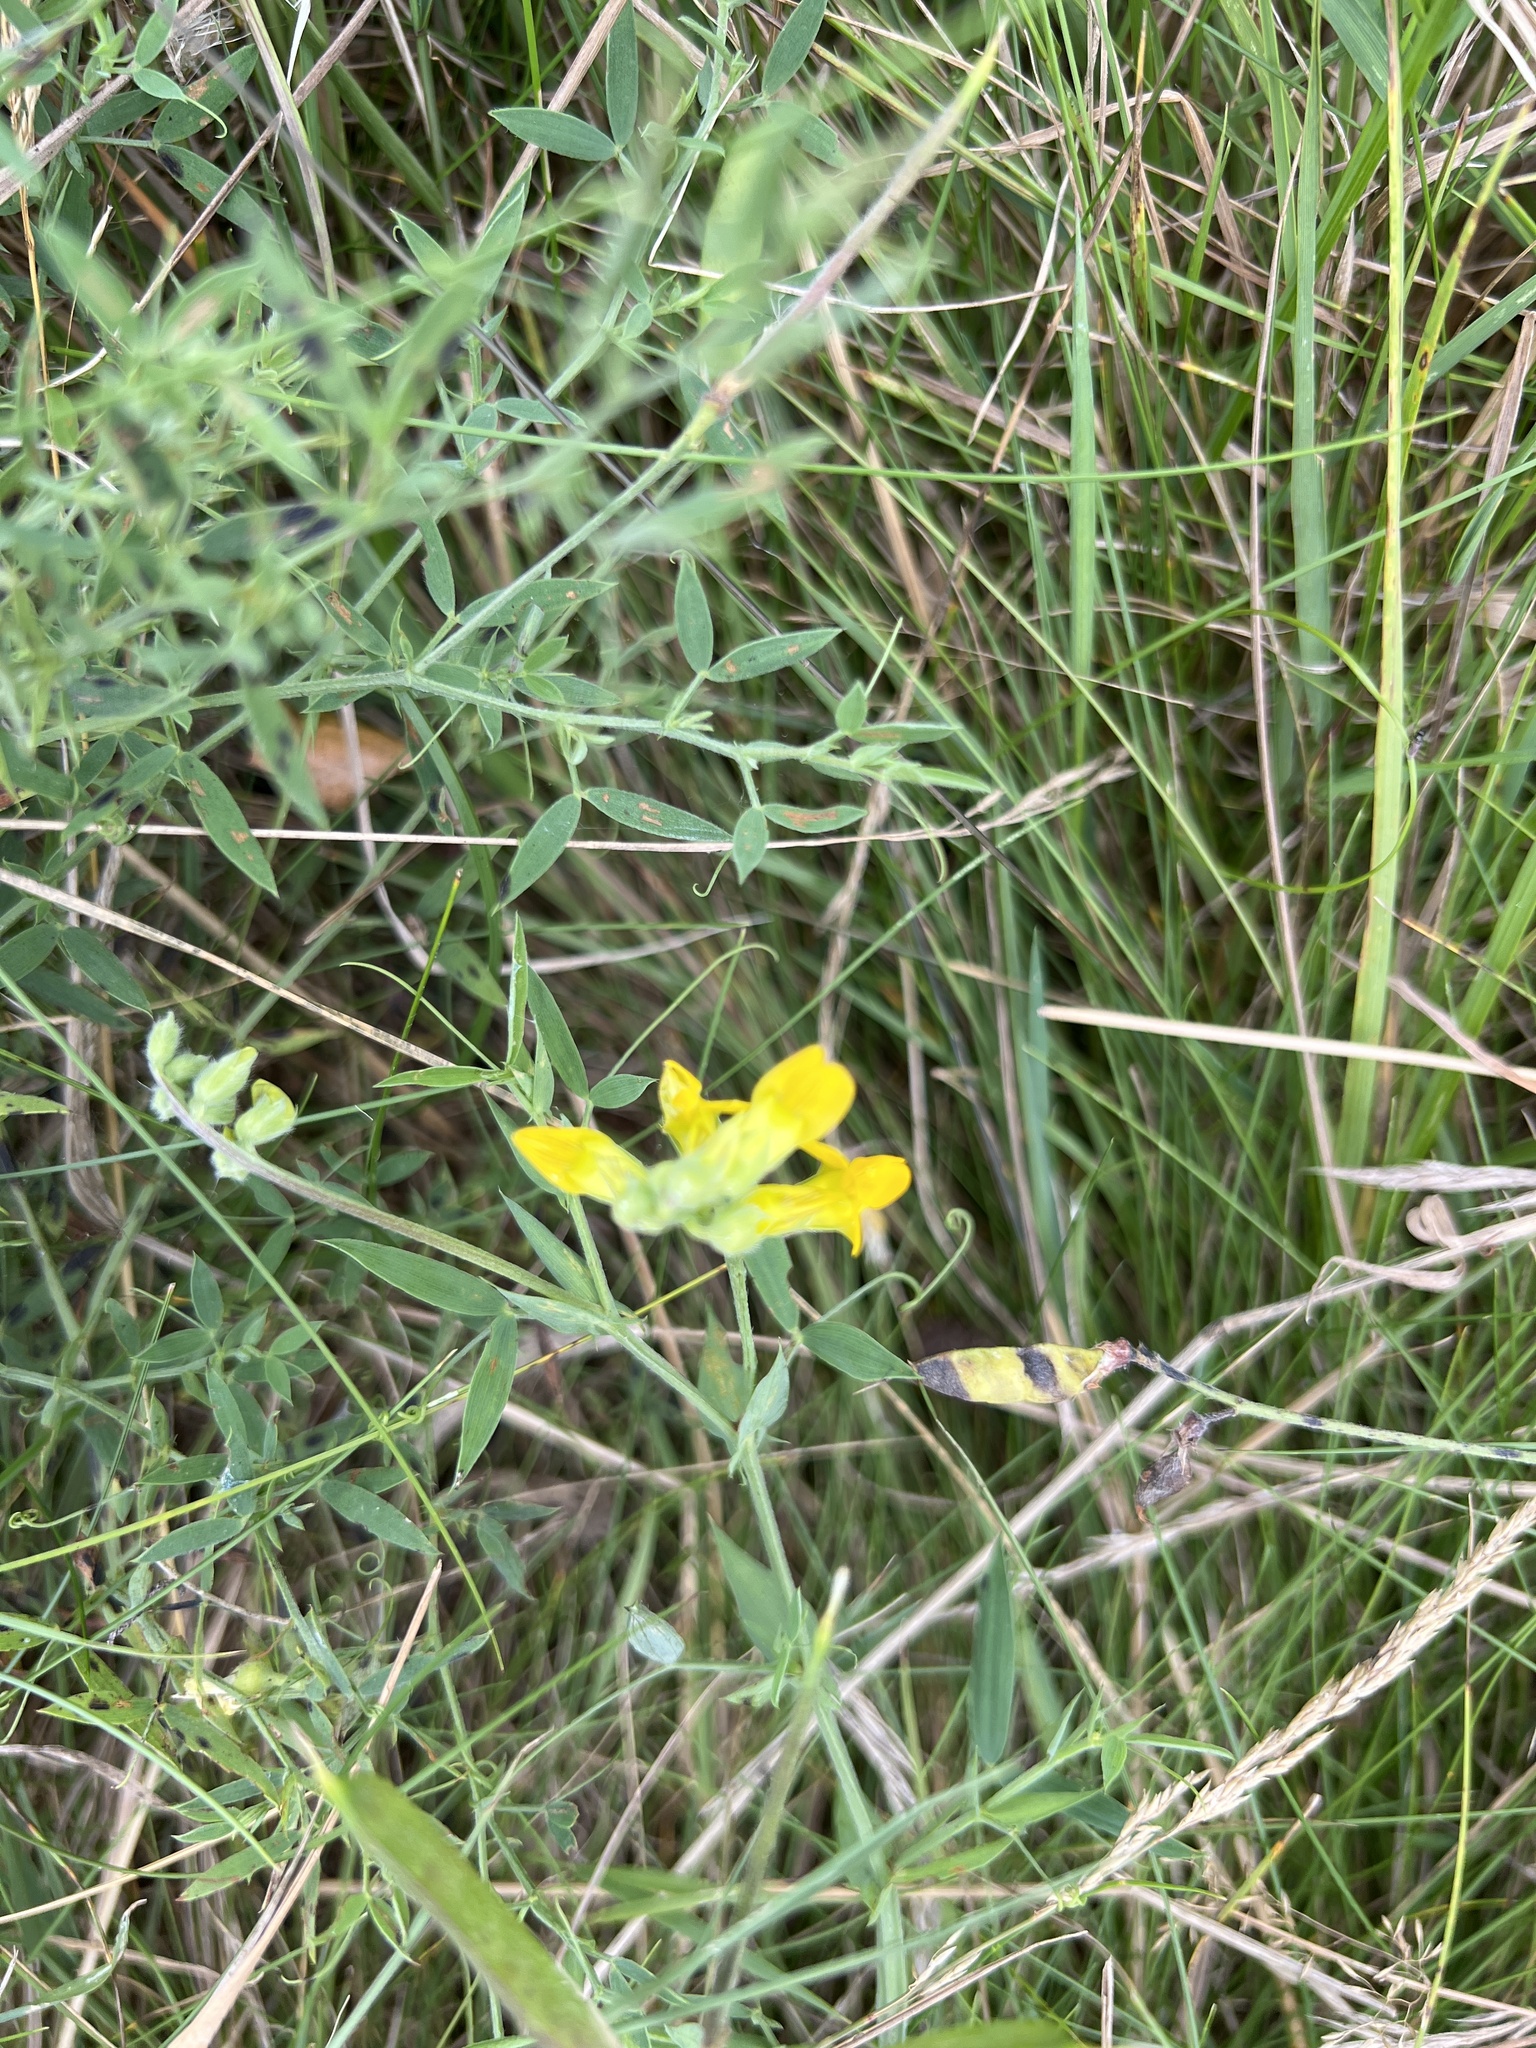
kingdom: Plantae
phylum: Tracheophyta
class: Magnoliopsida
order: Fabales
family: Fabaceae
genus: Lathyrus
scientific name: Lathyrus pratensis
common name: Meadow vetchling
